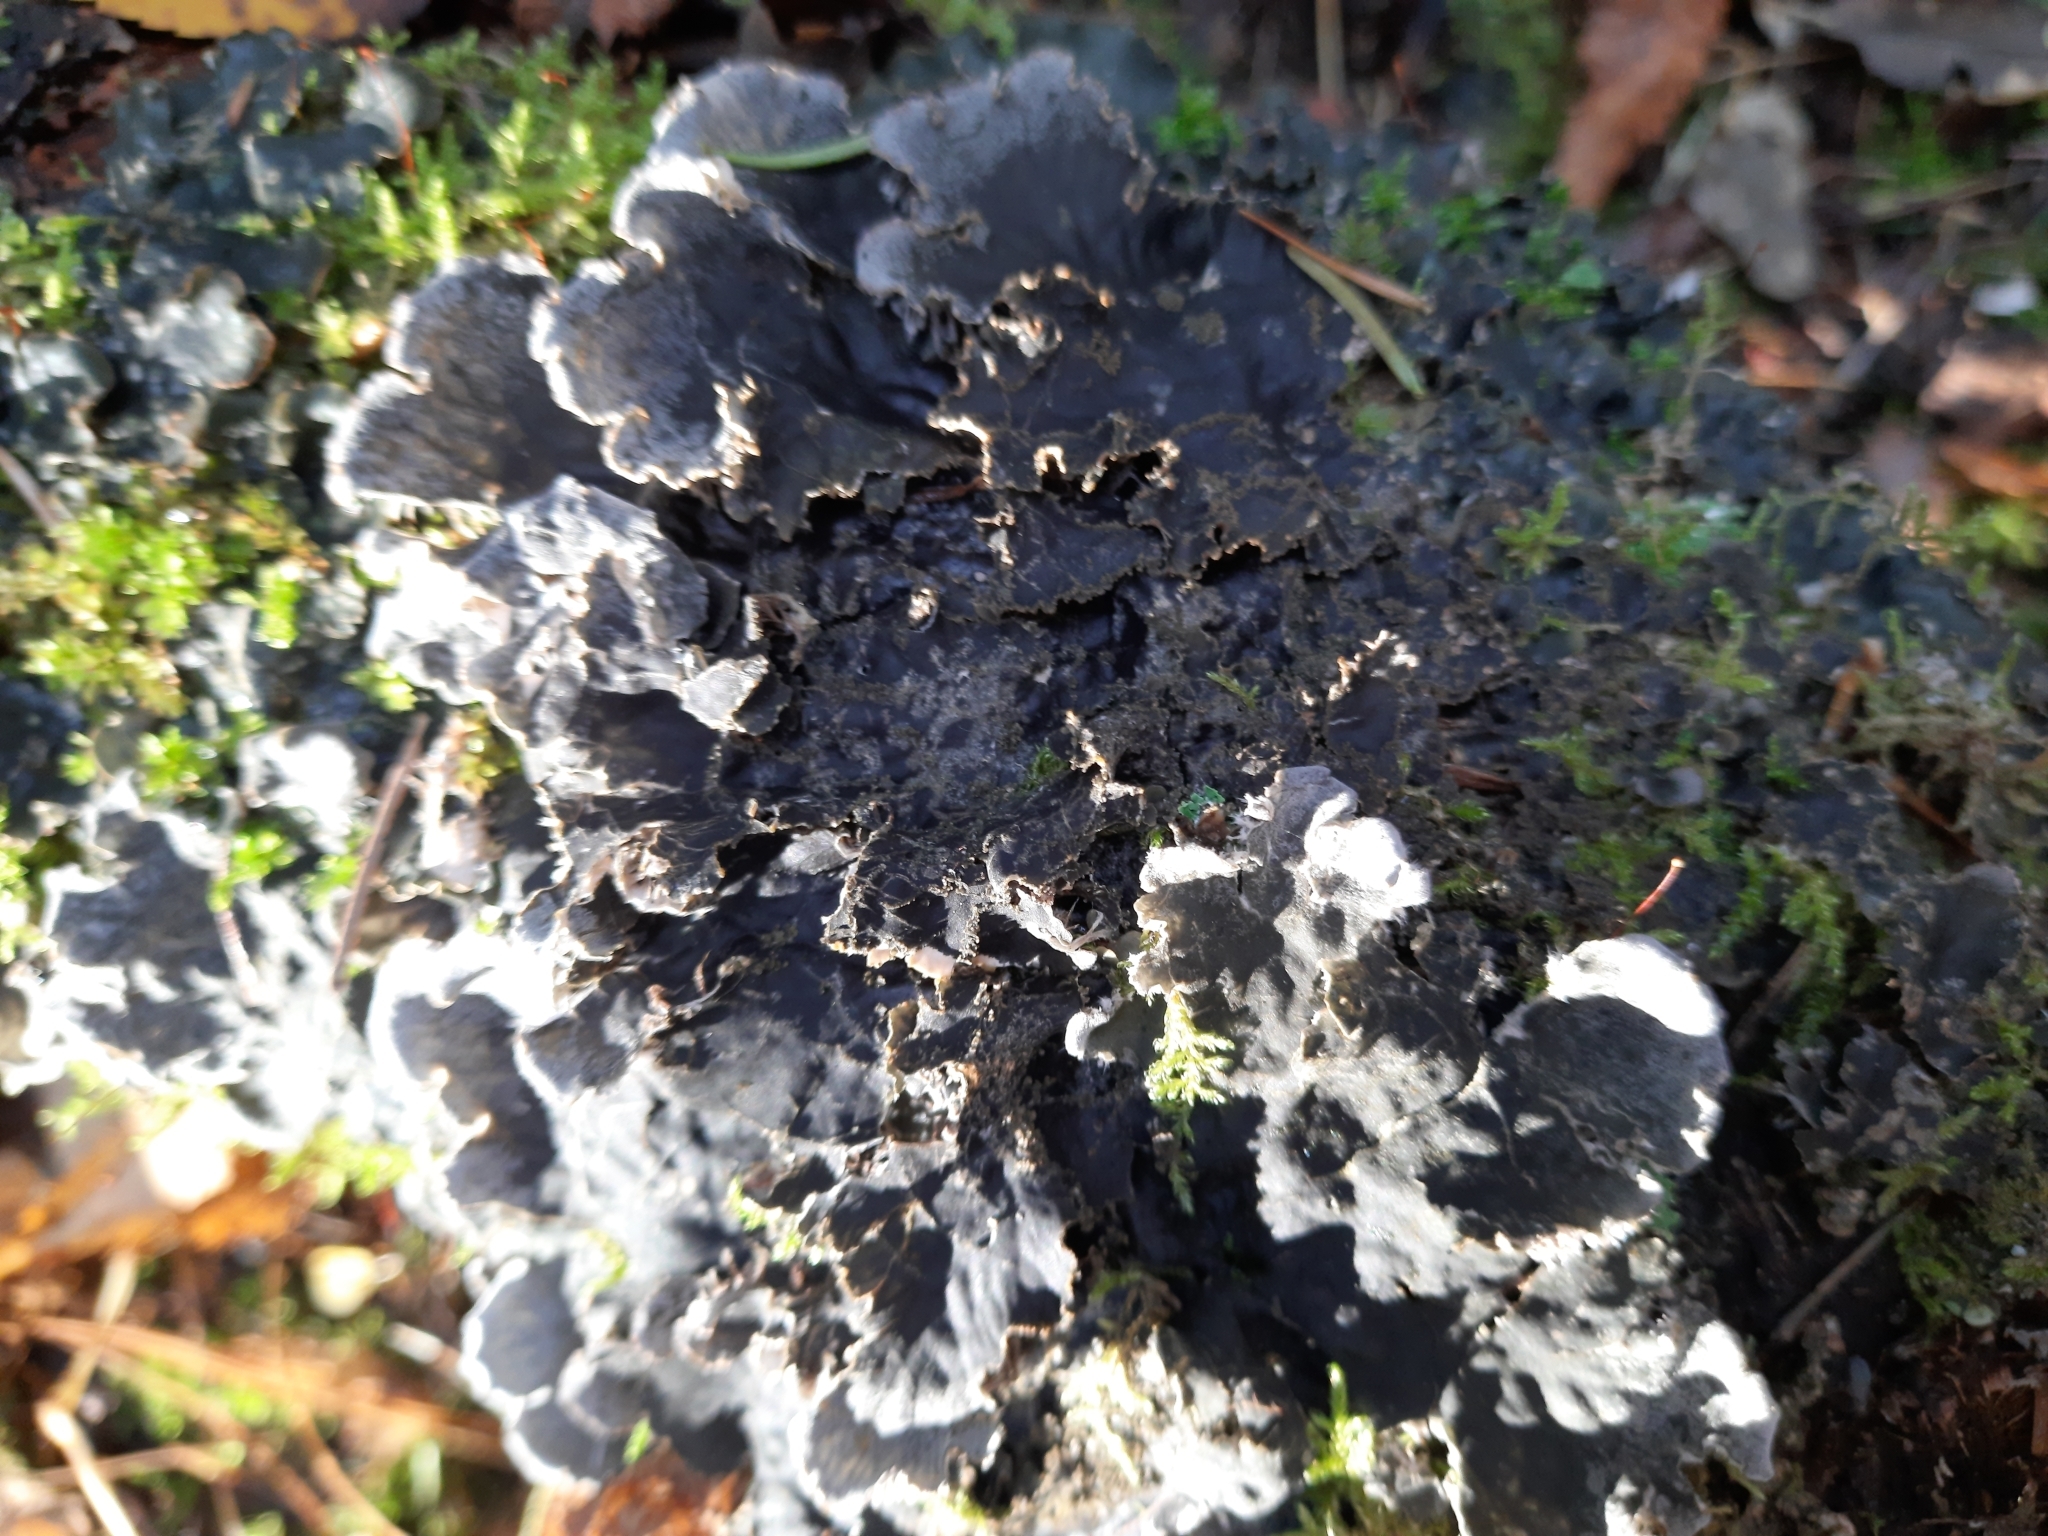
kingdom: Fungi
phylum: Ascomycota
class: Lecanoromycetes
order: Peltigerales
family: Peltigeraceae
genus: Peltigera
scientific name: Peltigera praetextata
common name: Scaly dog-lichen
